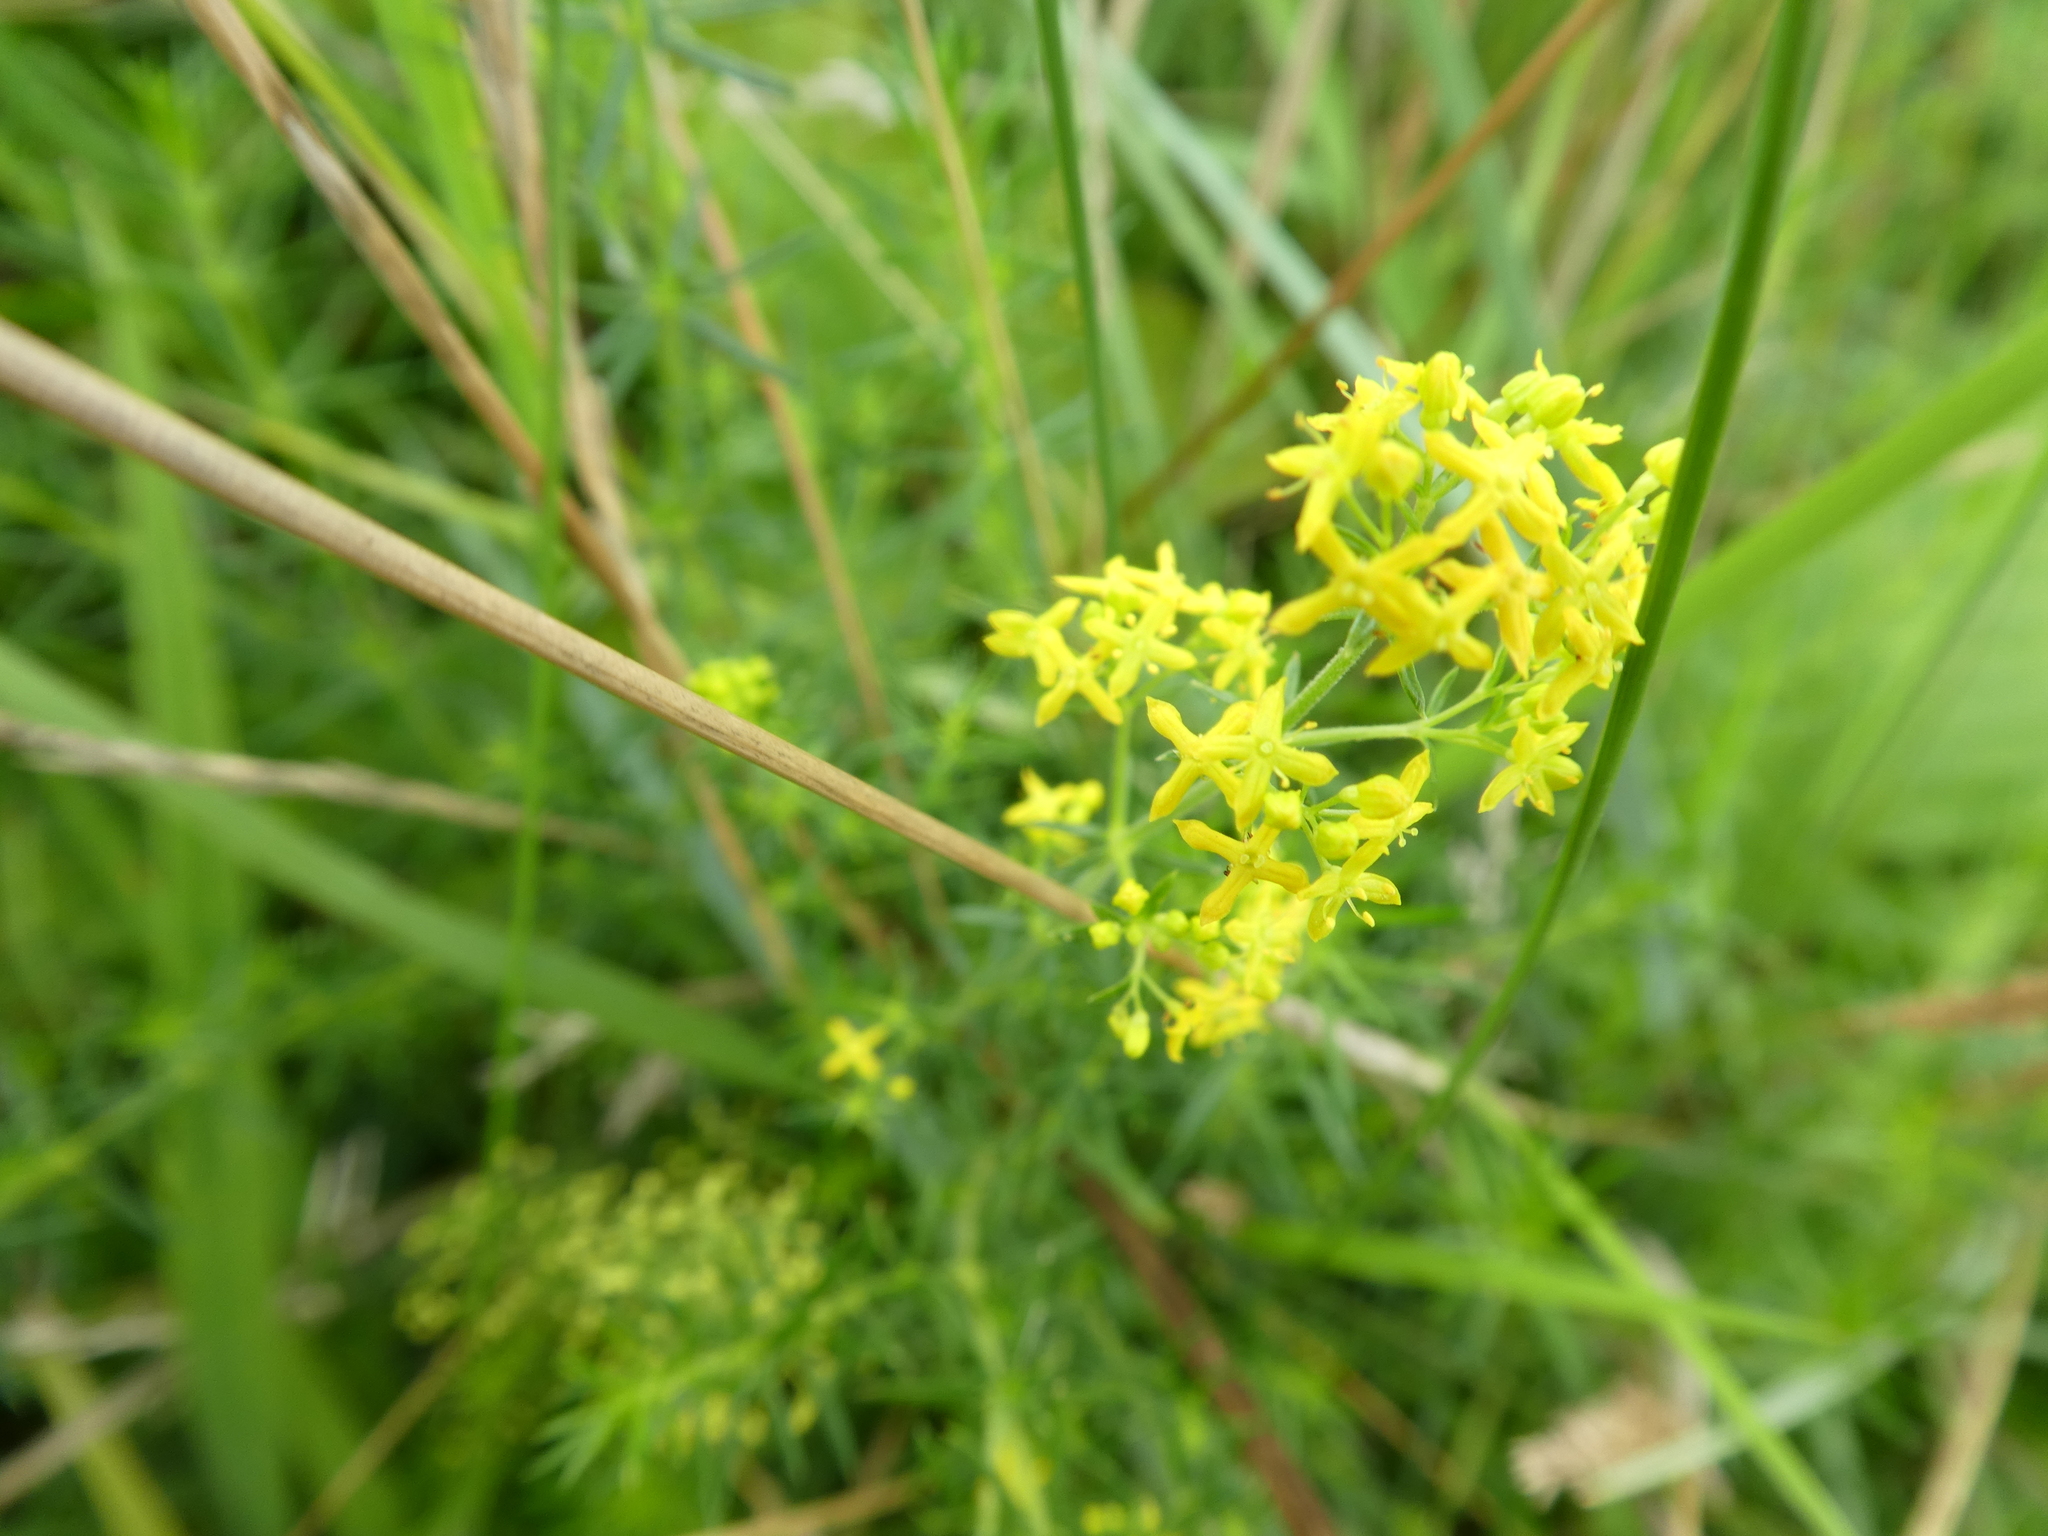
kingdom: Plantae
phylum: Tracheophyta
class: Magnoliopsida
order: Gentianales
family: Rubiaceae
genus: Galium
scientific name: Galium verum
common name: Lady's bedstraw
